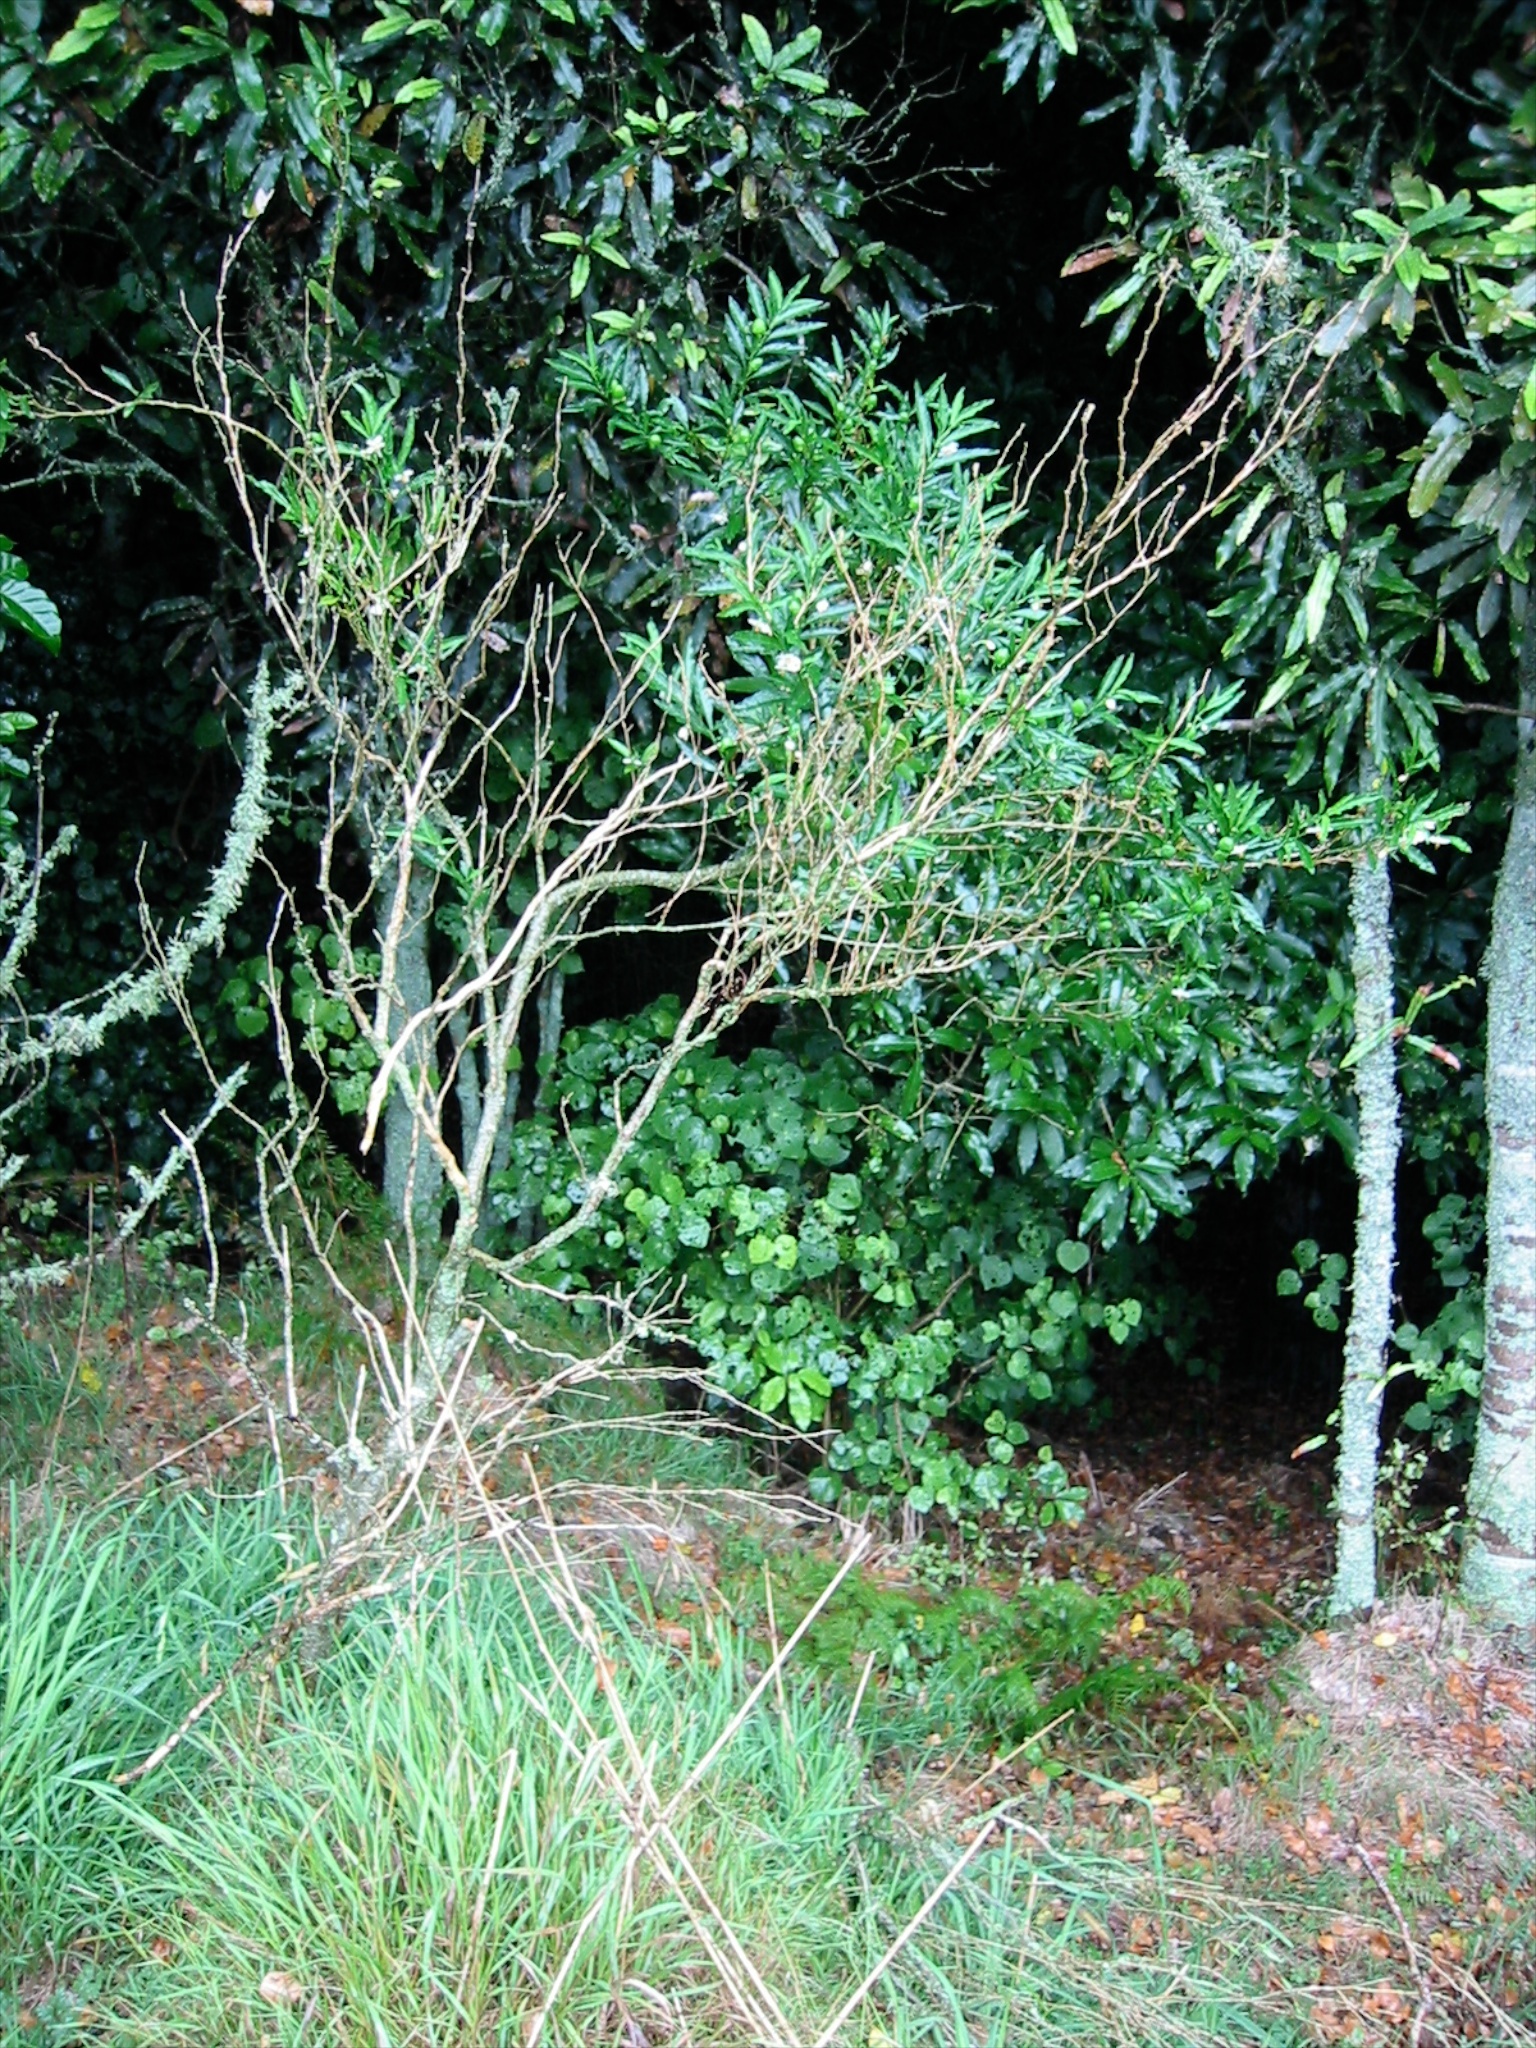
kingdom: Plantae
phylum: Tracheophyta
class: Magnoliopsida
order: Solanales
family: Solanaceae
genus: Solanum
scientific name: Solanum pseudocapsicum
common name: Jerusalem cherry
